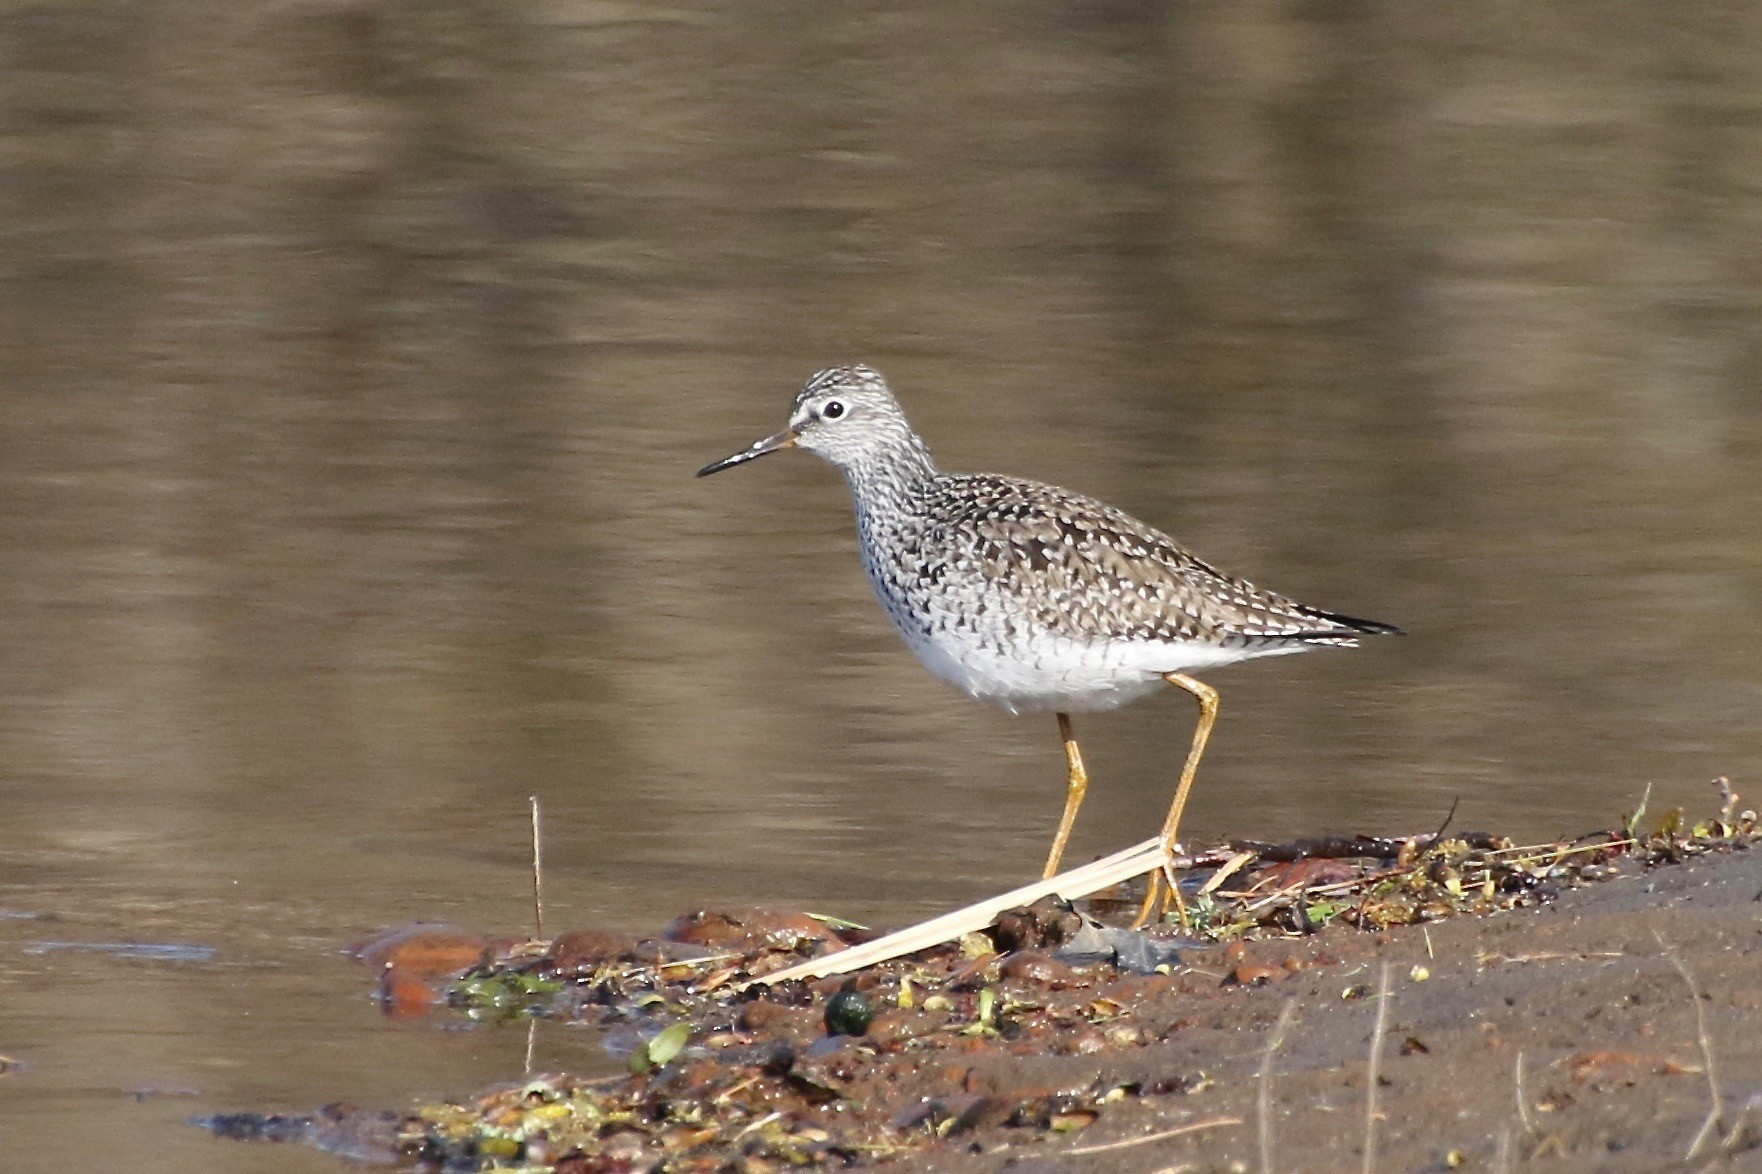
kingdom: Animalia
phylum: Chordata
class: Aves
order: Charadriiformes
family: Scolopacidae
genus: Tringa
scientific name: Tringa flavipes
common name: Lesser yellowlegs
